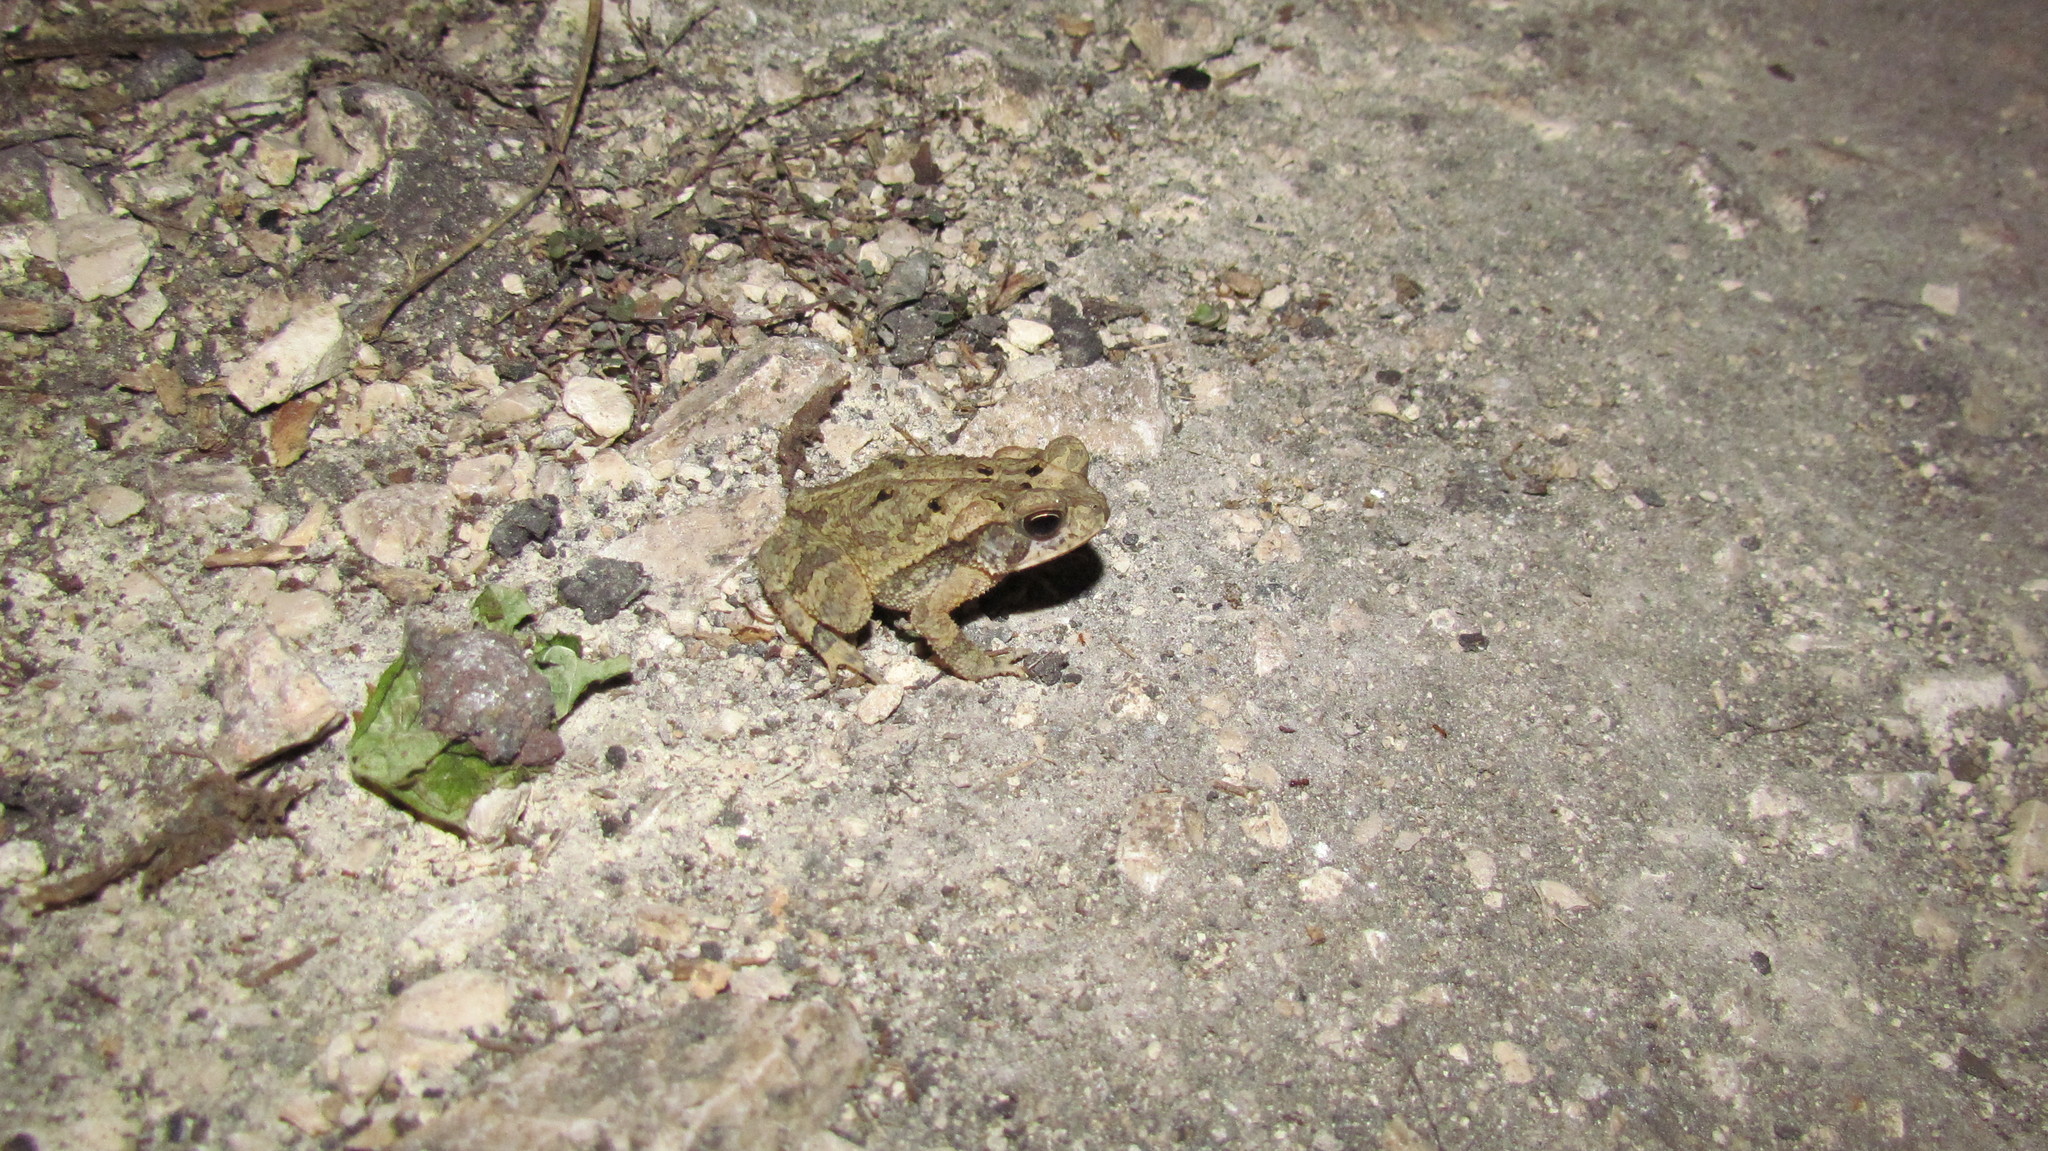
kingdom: Animalia
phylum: Chordata
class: Amphibia
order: Anura
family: Bufonidae
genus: Incilius
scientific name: Incilius valliceps
